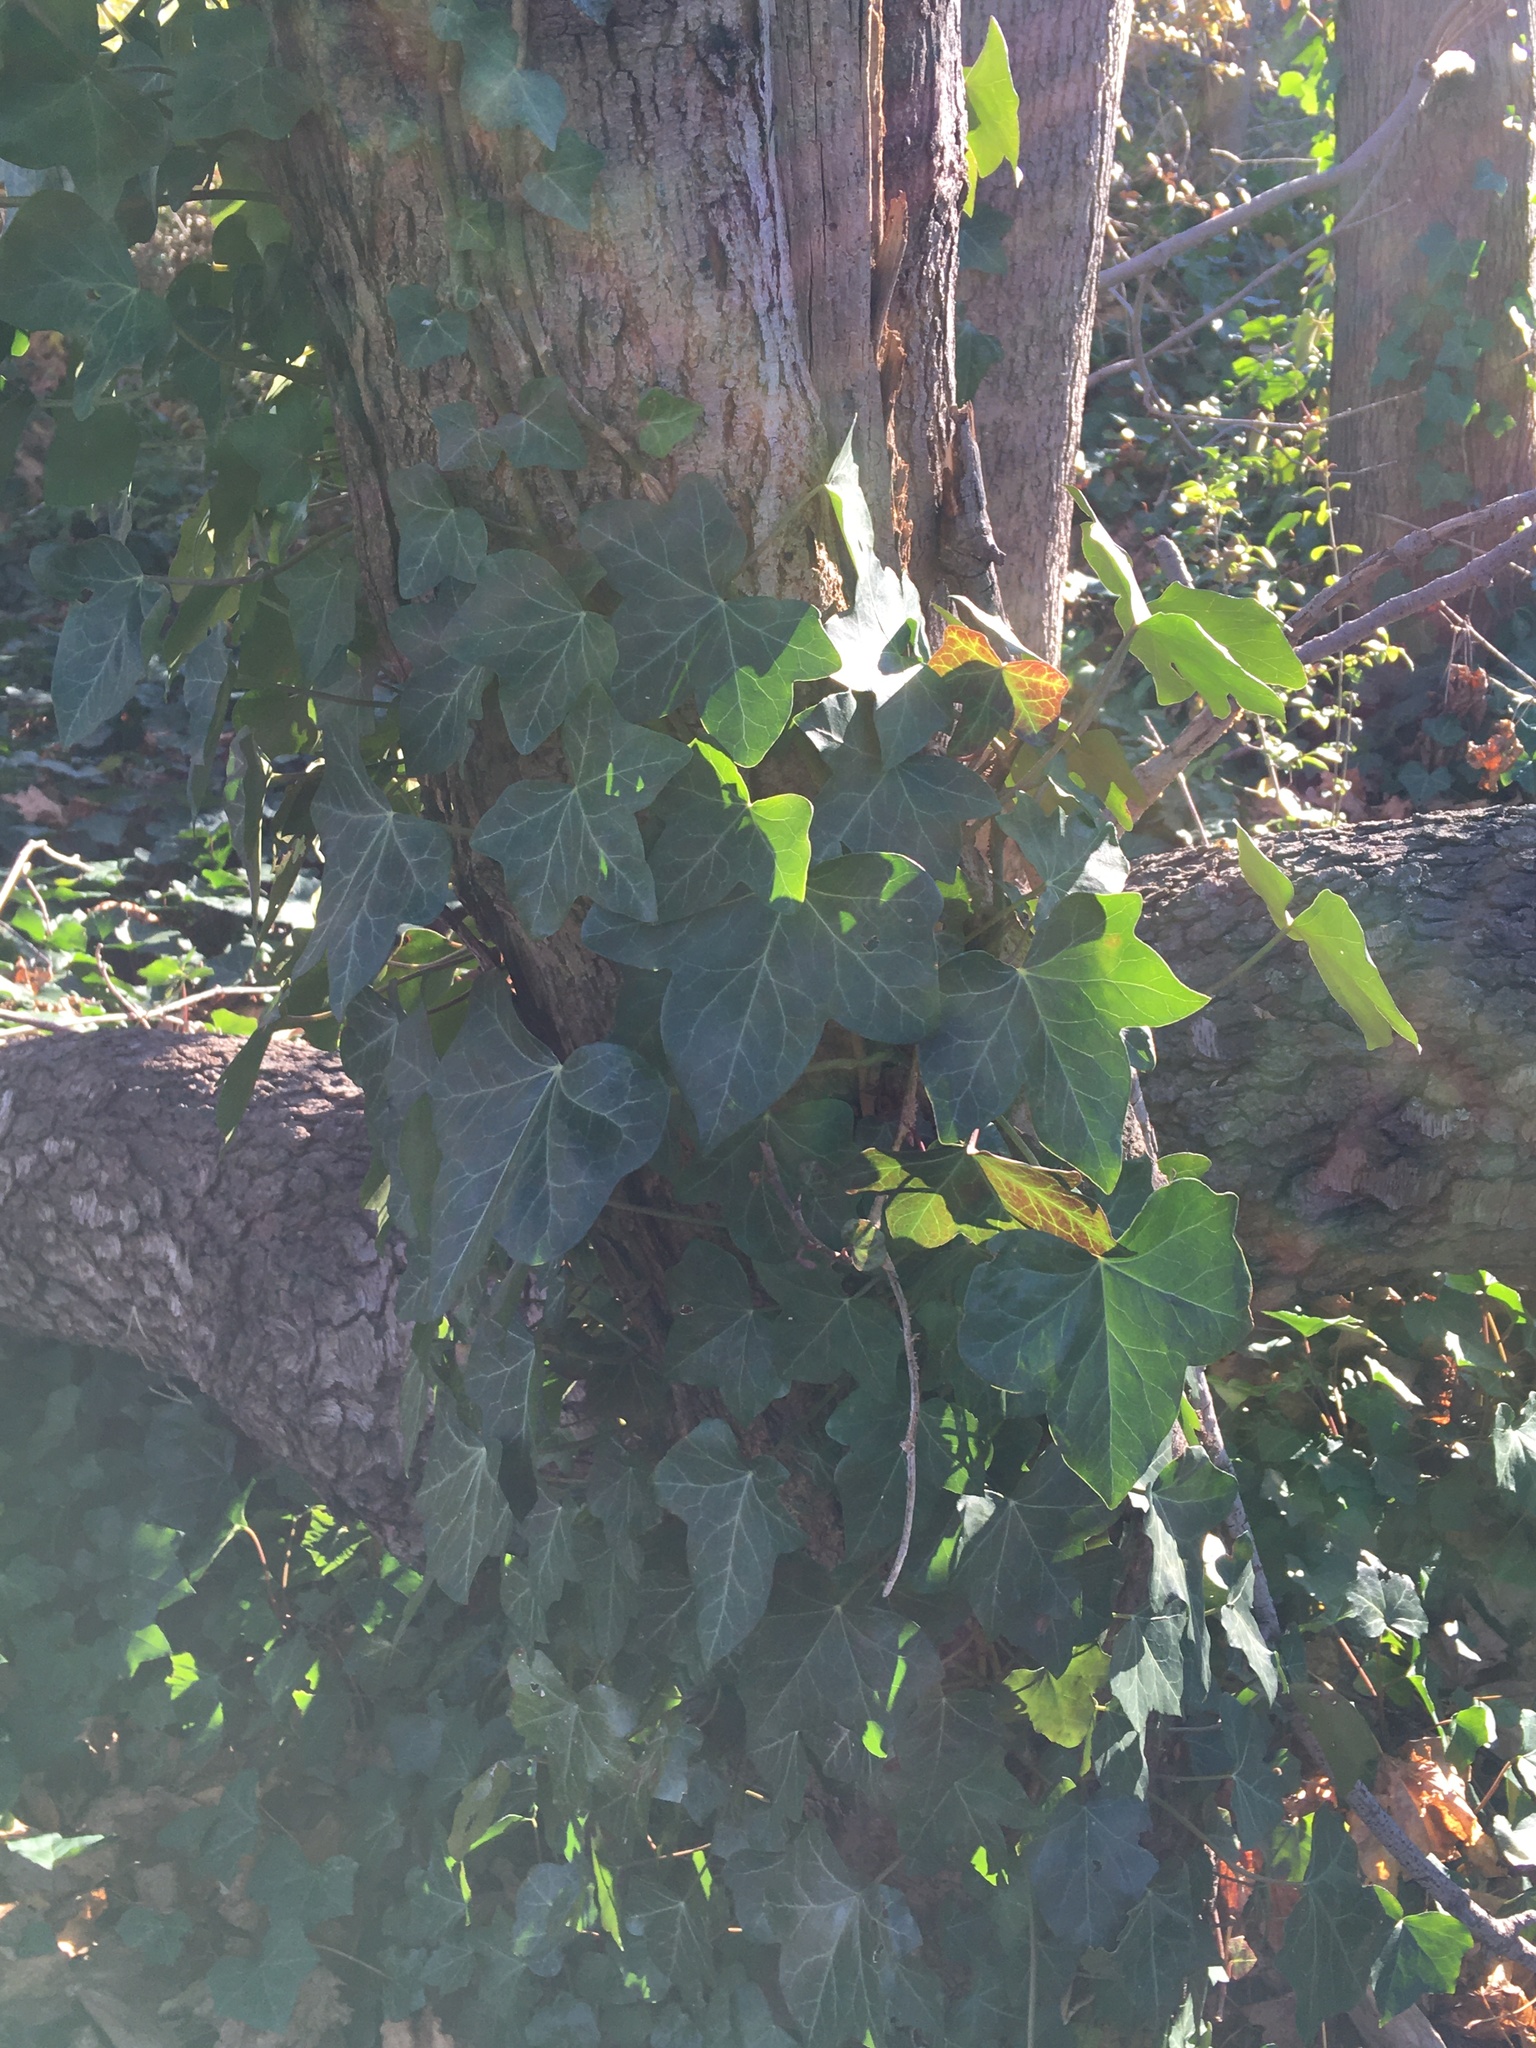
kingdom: Plantae
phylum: Tracheophyta
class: Magnoliopsida
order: Apiales
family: Araliaceae
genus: Hedera
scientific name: Hedera helix
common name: Ivy
